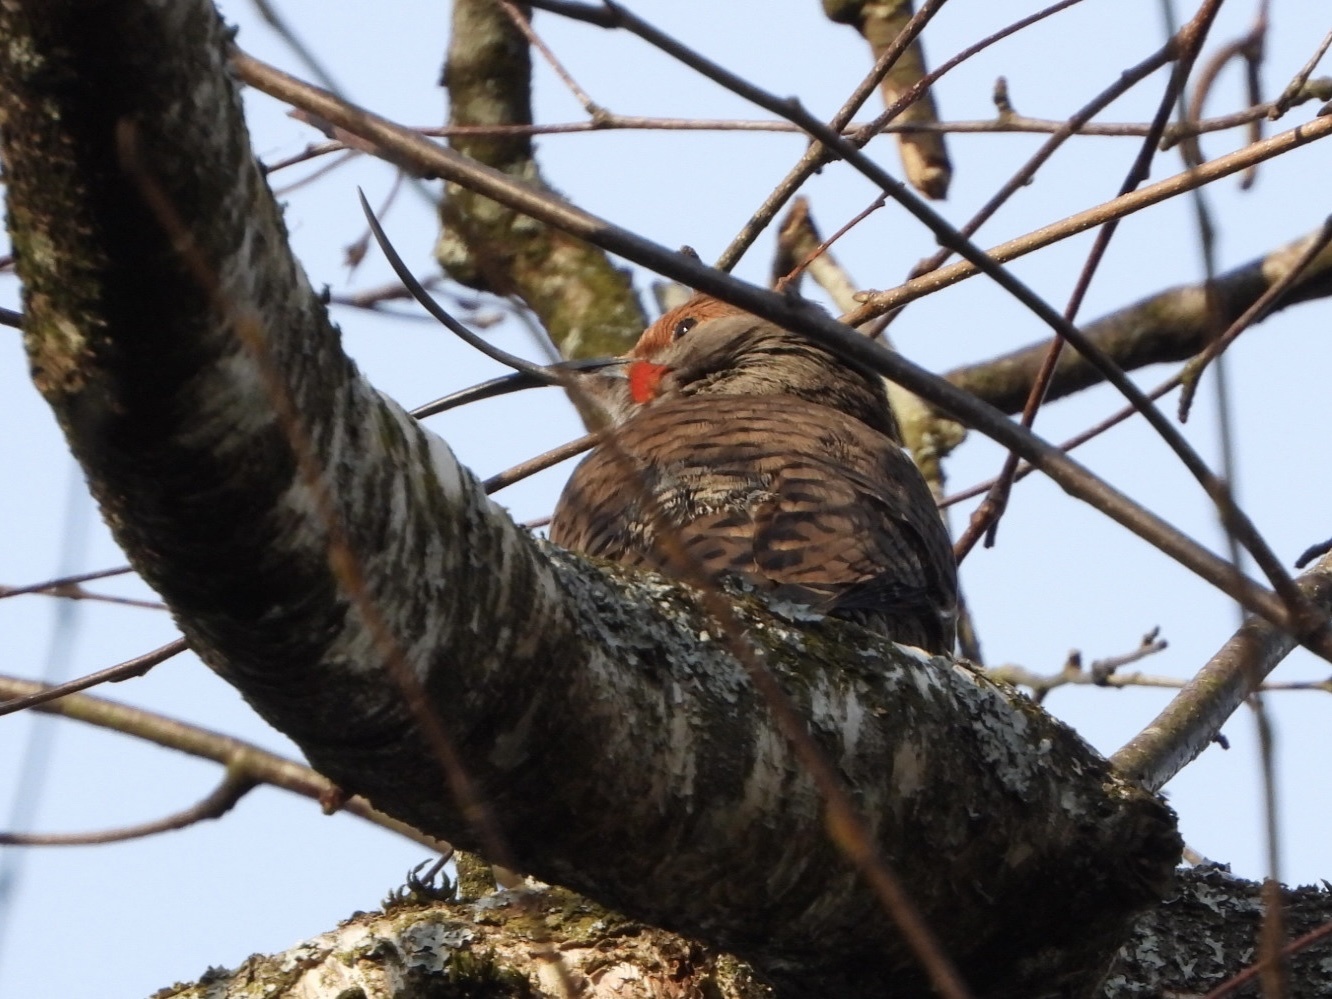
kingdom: Animalia
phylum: Chordata
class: Aves
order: Piciformes
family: Picidae
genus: Colaptes
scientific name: Colaptes auratus
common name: Northern flicker
